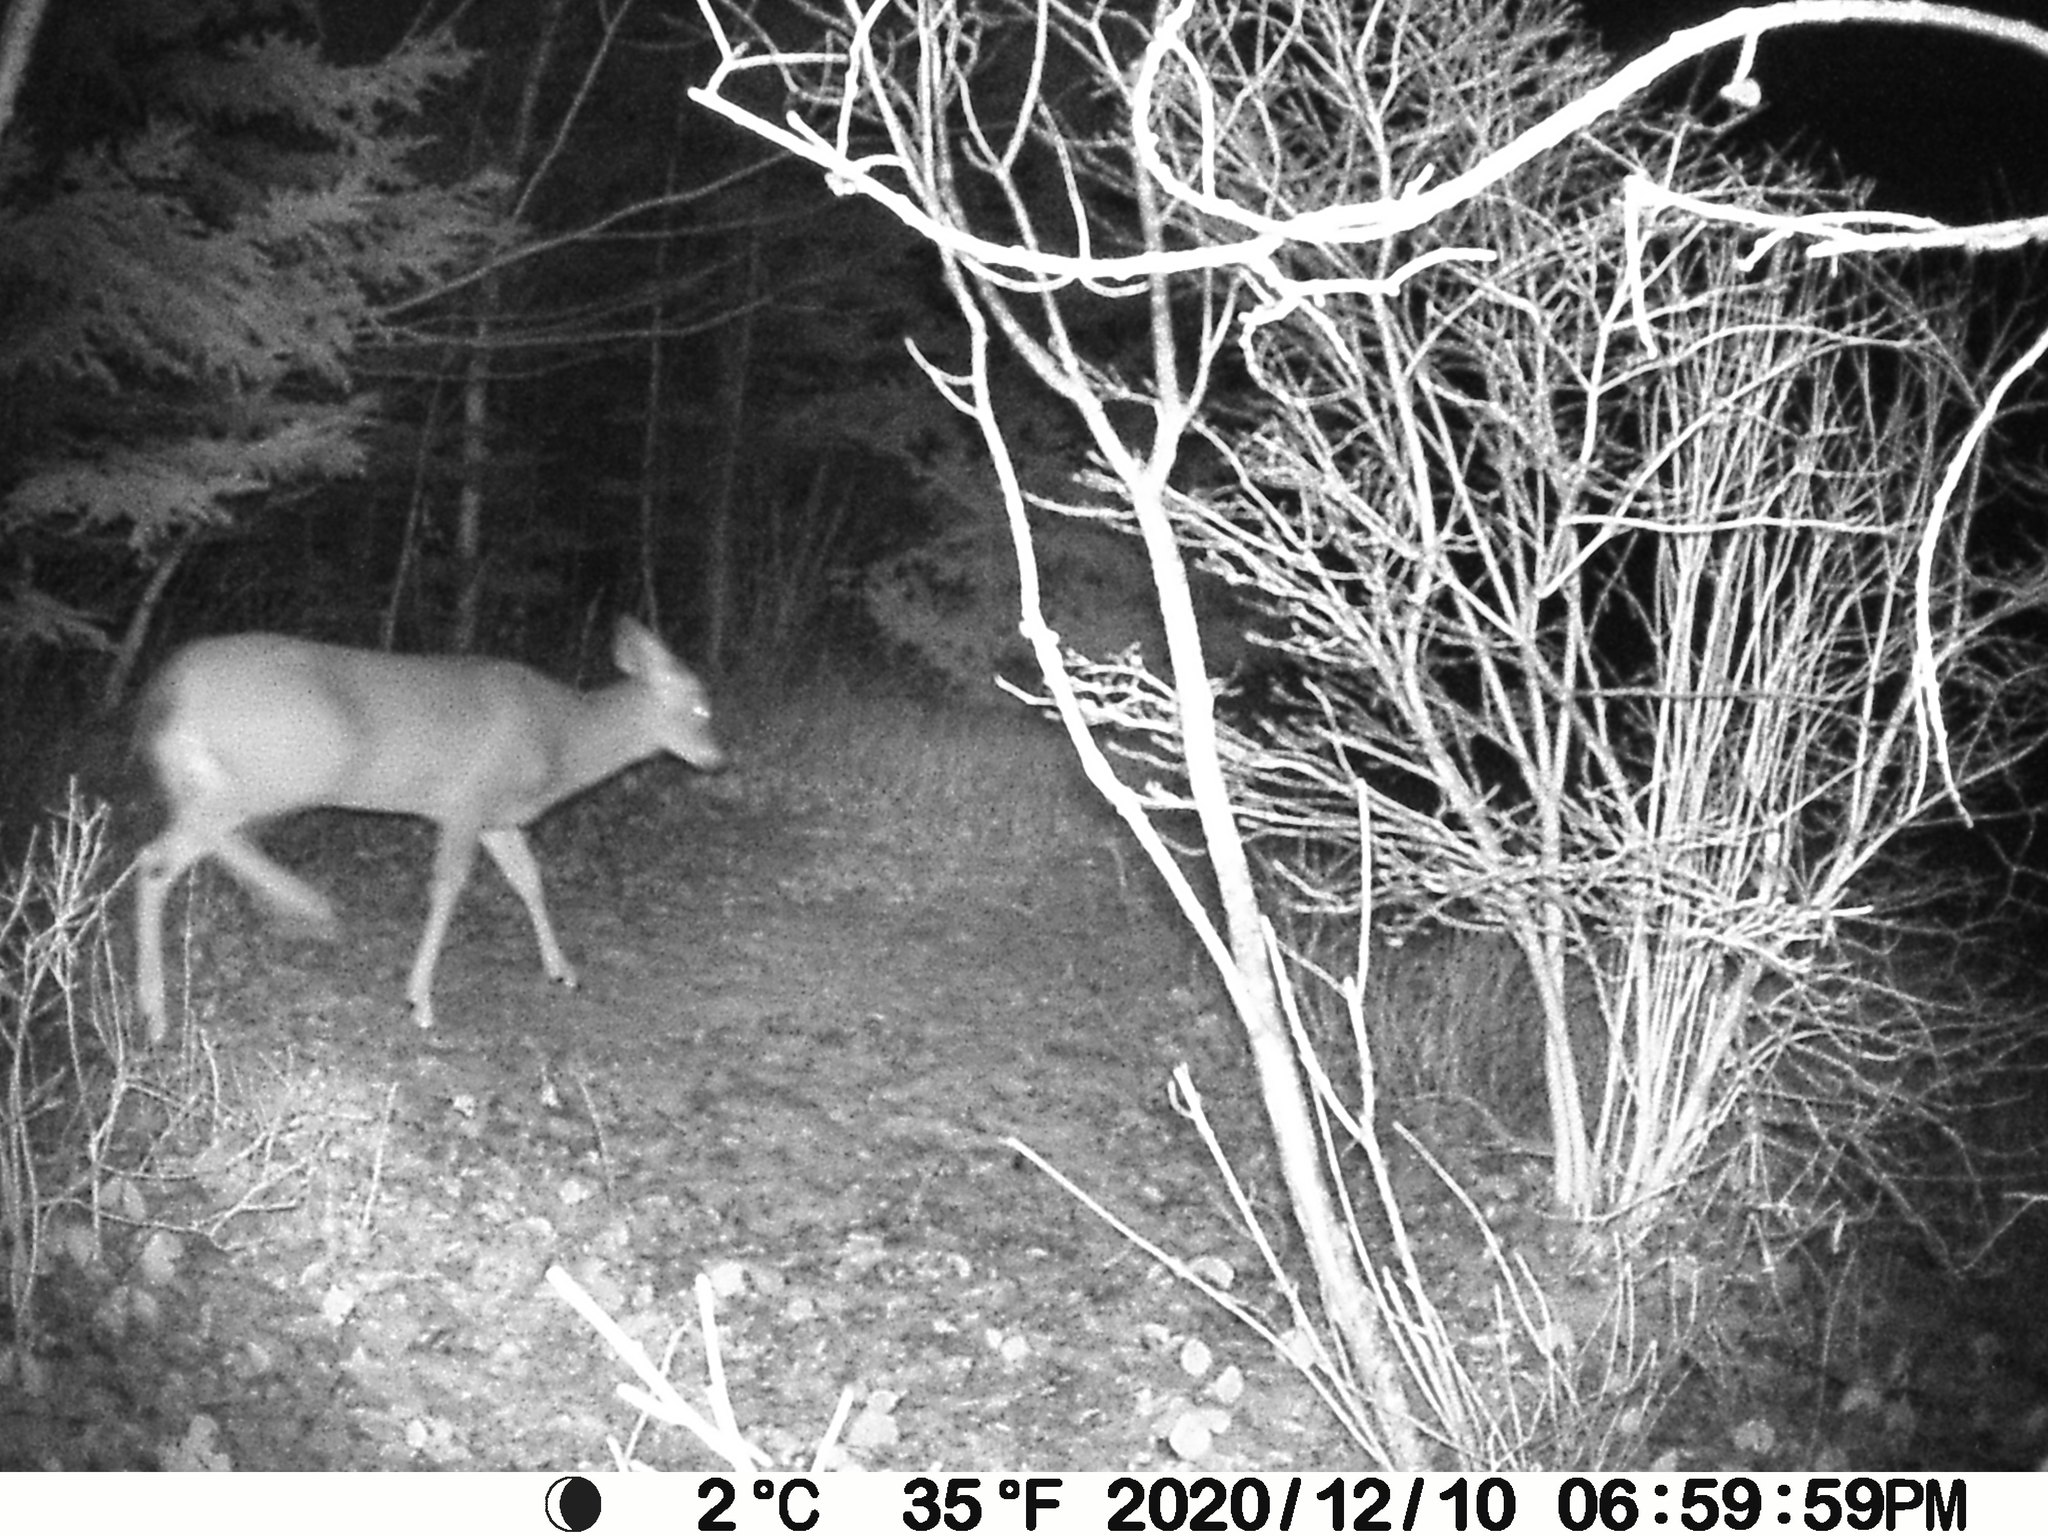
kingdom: Animalia
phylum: Chordata
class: Mammalia
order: Artiodactyla
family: Cervidae
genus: Odocoileus
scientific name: Odocoileus virginianus
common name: White-tailed deer
